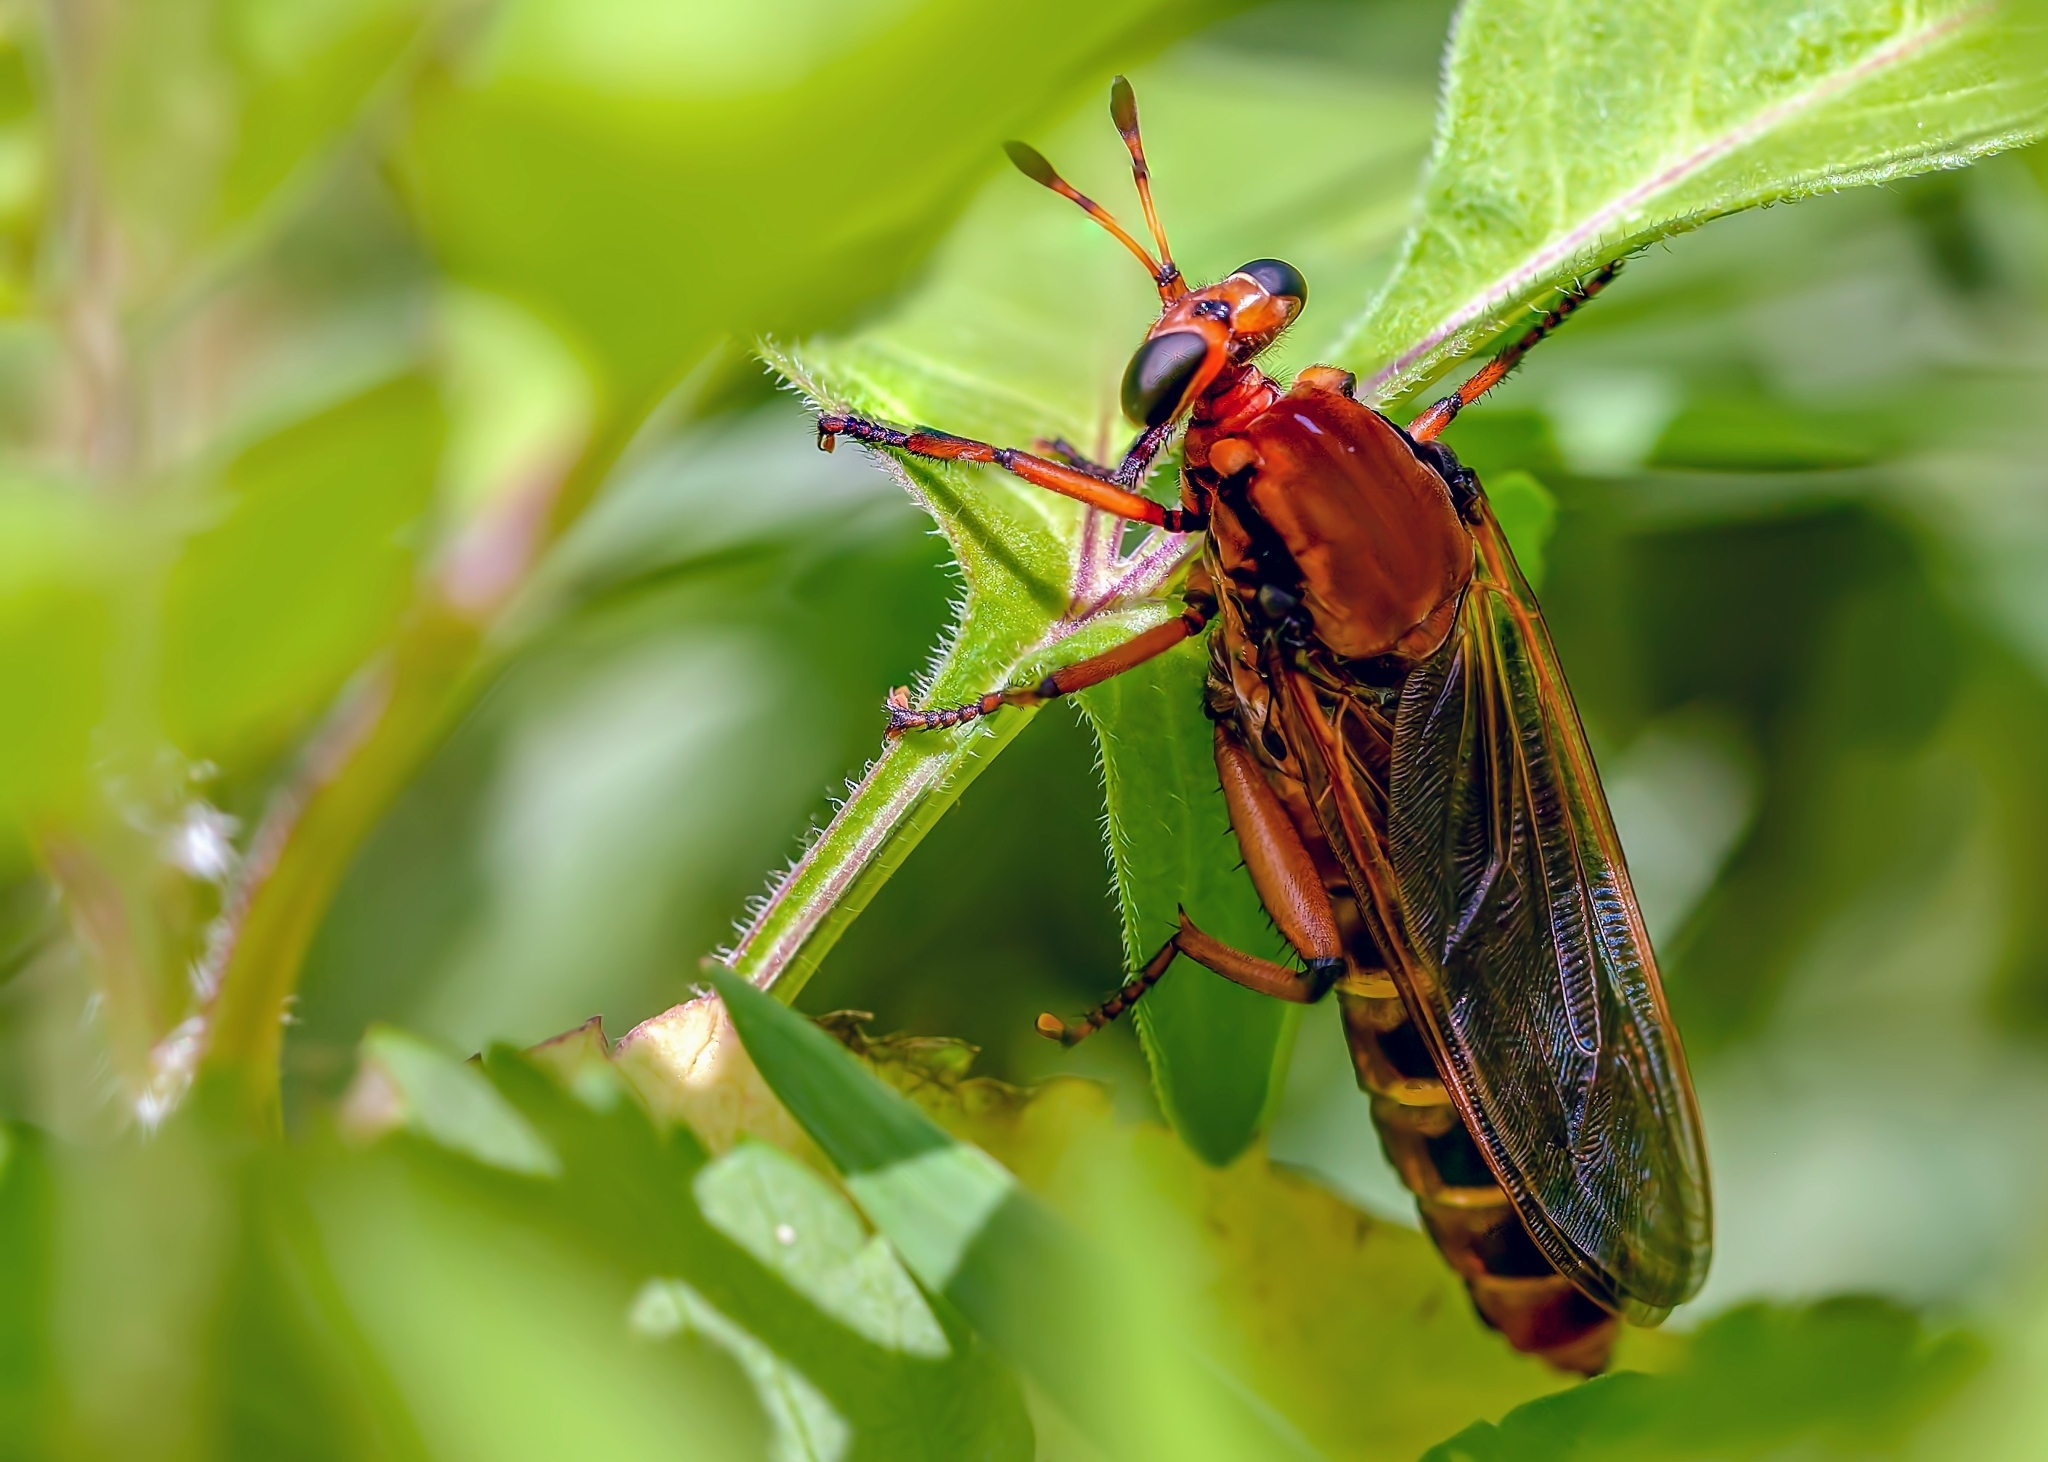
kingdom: Animalia
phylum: Arthropoda
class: Insecta
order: Diptera
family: Mydidae
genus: Mydas
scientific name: Mydas maculiventris
